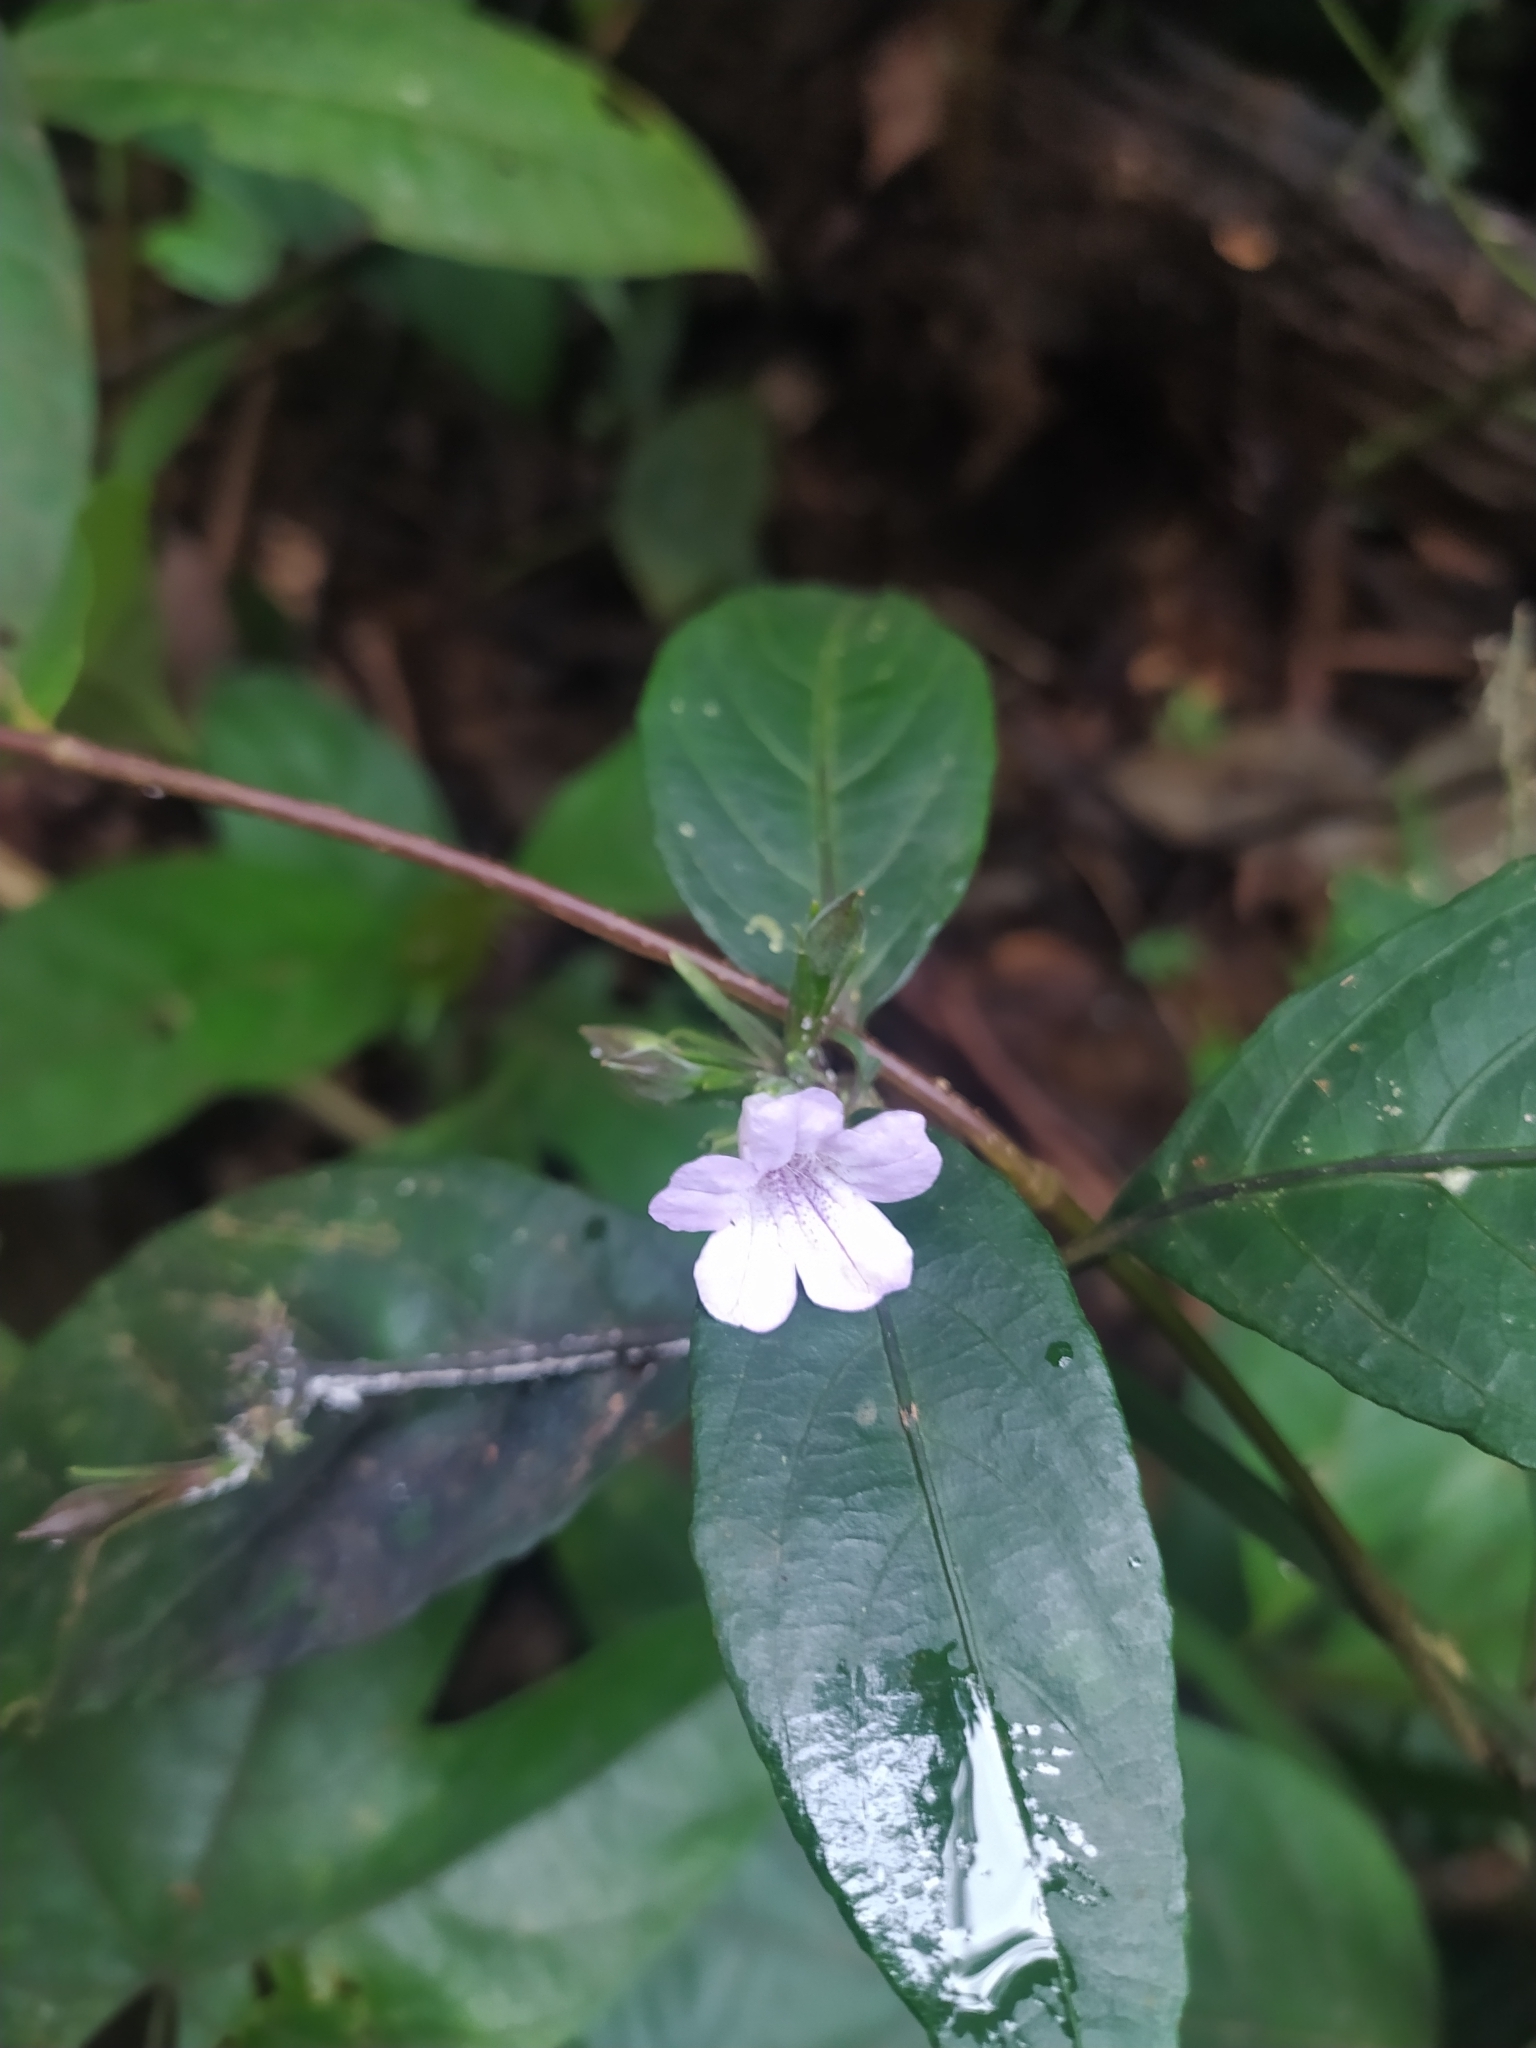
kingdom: Plantae
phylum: Tracheophyta
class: Magnoliopsida
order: Lamiales
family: Acanthaceae
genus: Ruellia
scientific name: Ruellia rubra
